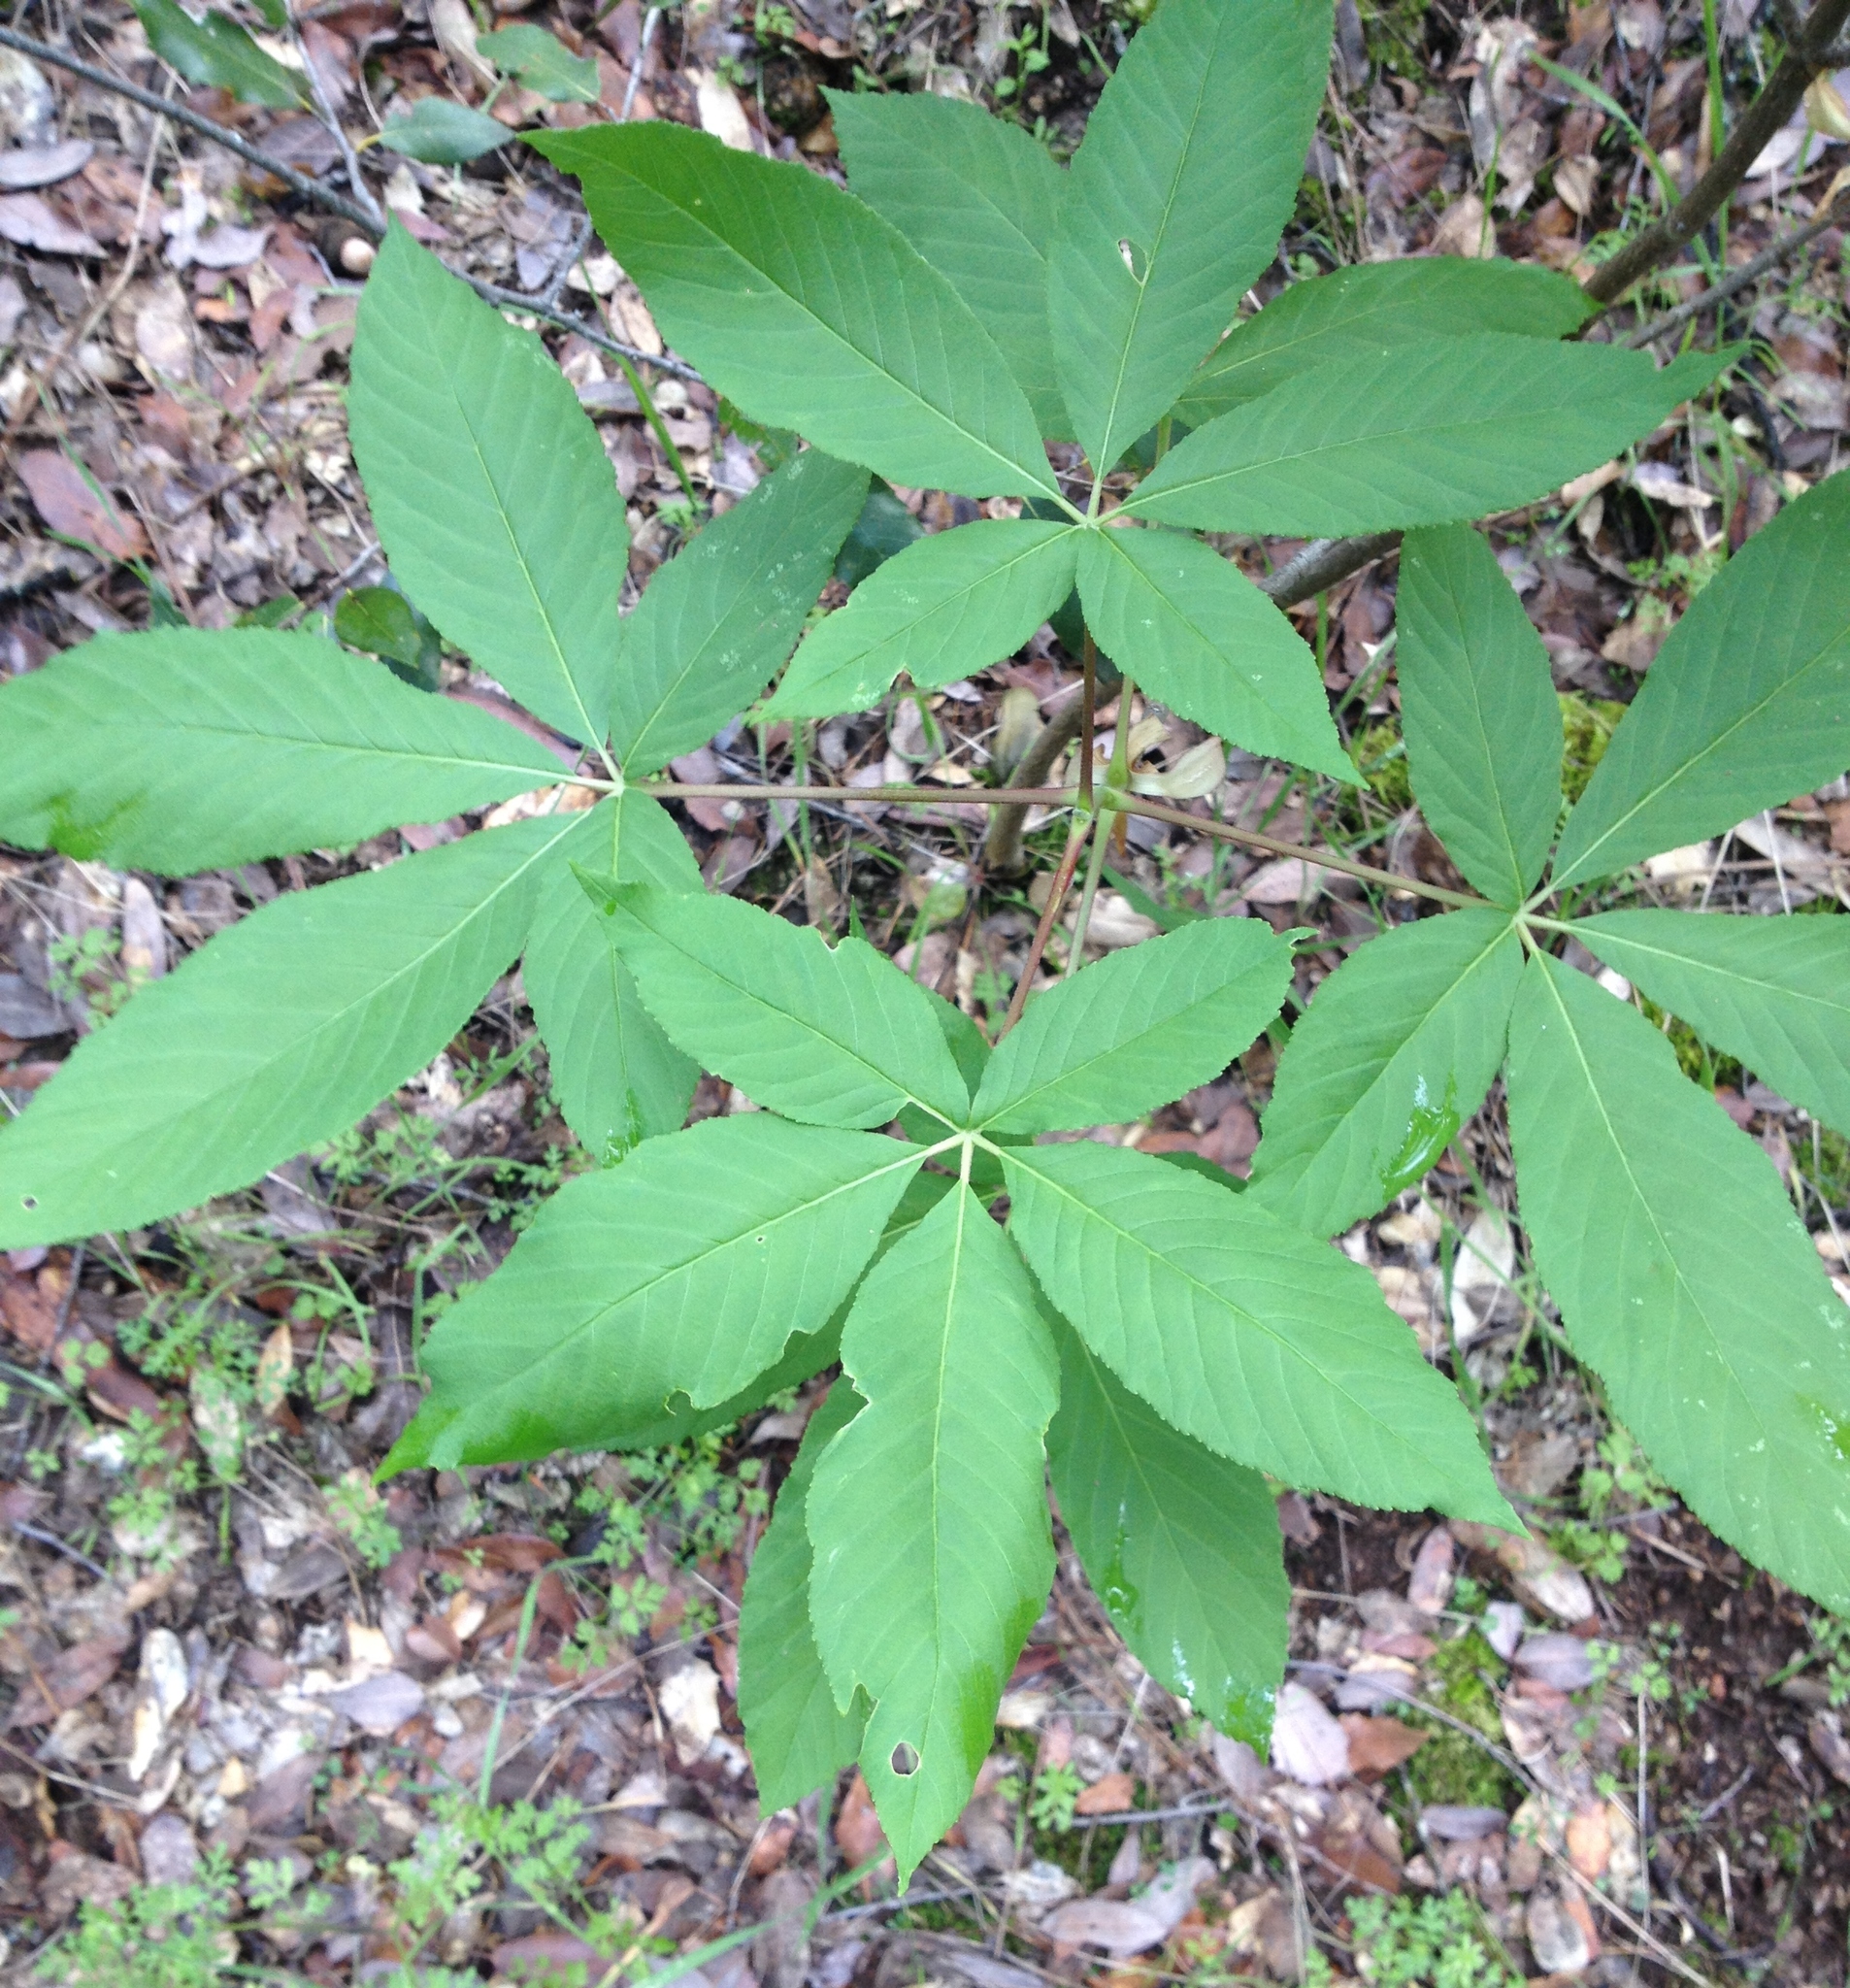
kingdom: Plantae
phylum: Tracheophyta
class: Magnoliopsida
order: Sapindales
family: Sapindaceae
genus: Aesculus
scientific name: Aesculus californica
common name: California buckeye
